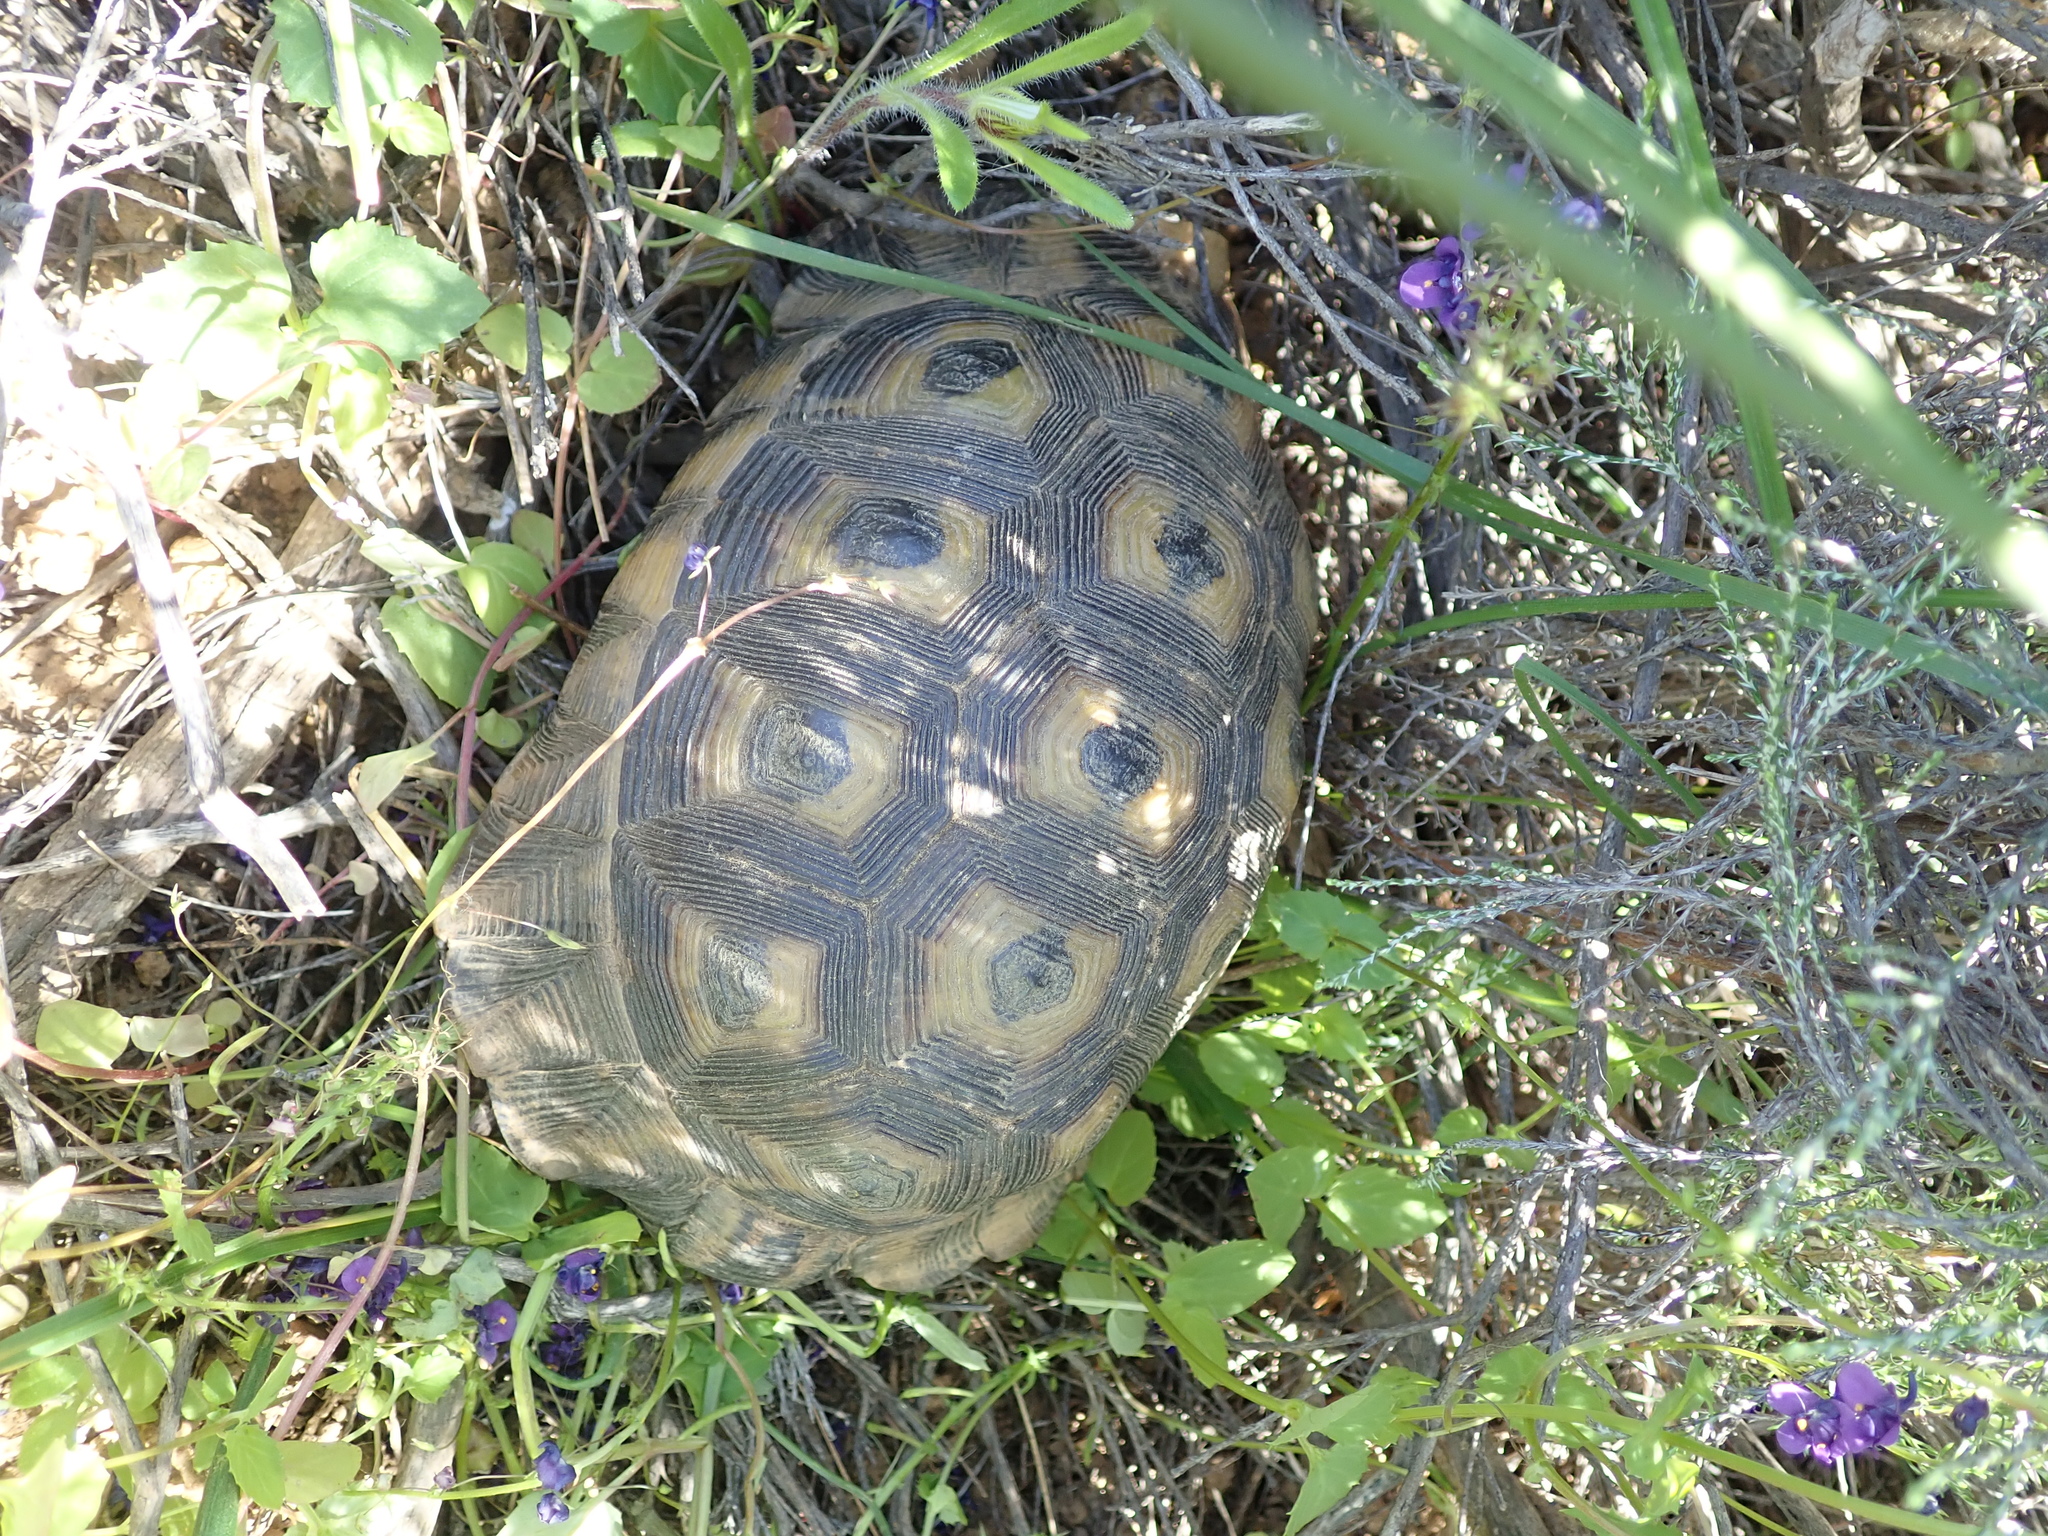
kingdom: Animalia
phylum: Chordata
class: Testudines
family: Testudinidae
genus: Chersina
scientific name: Chersina angulata
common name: South african bowsprit tortoise
